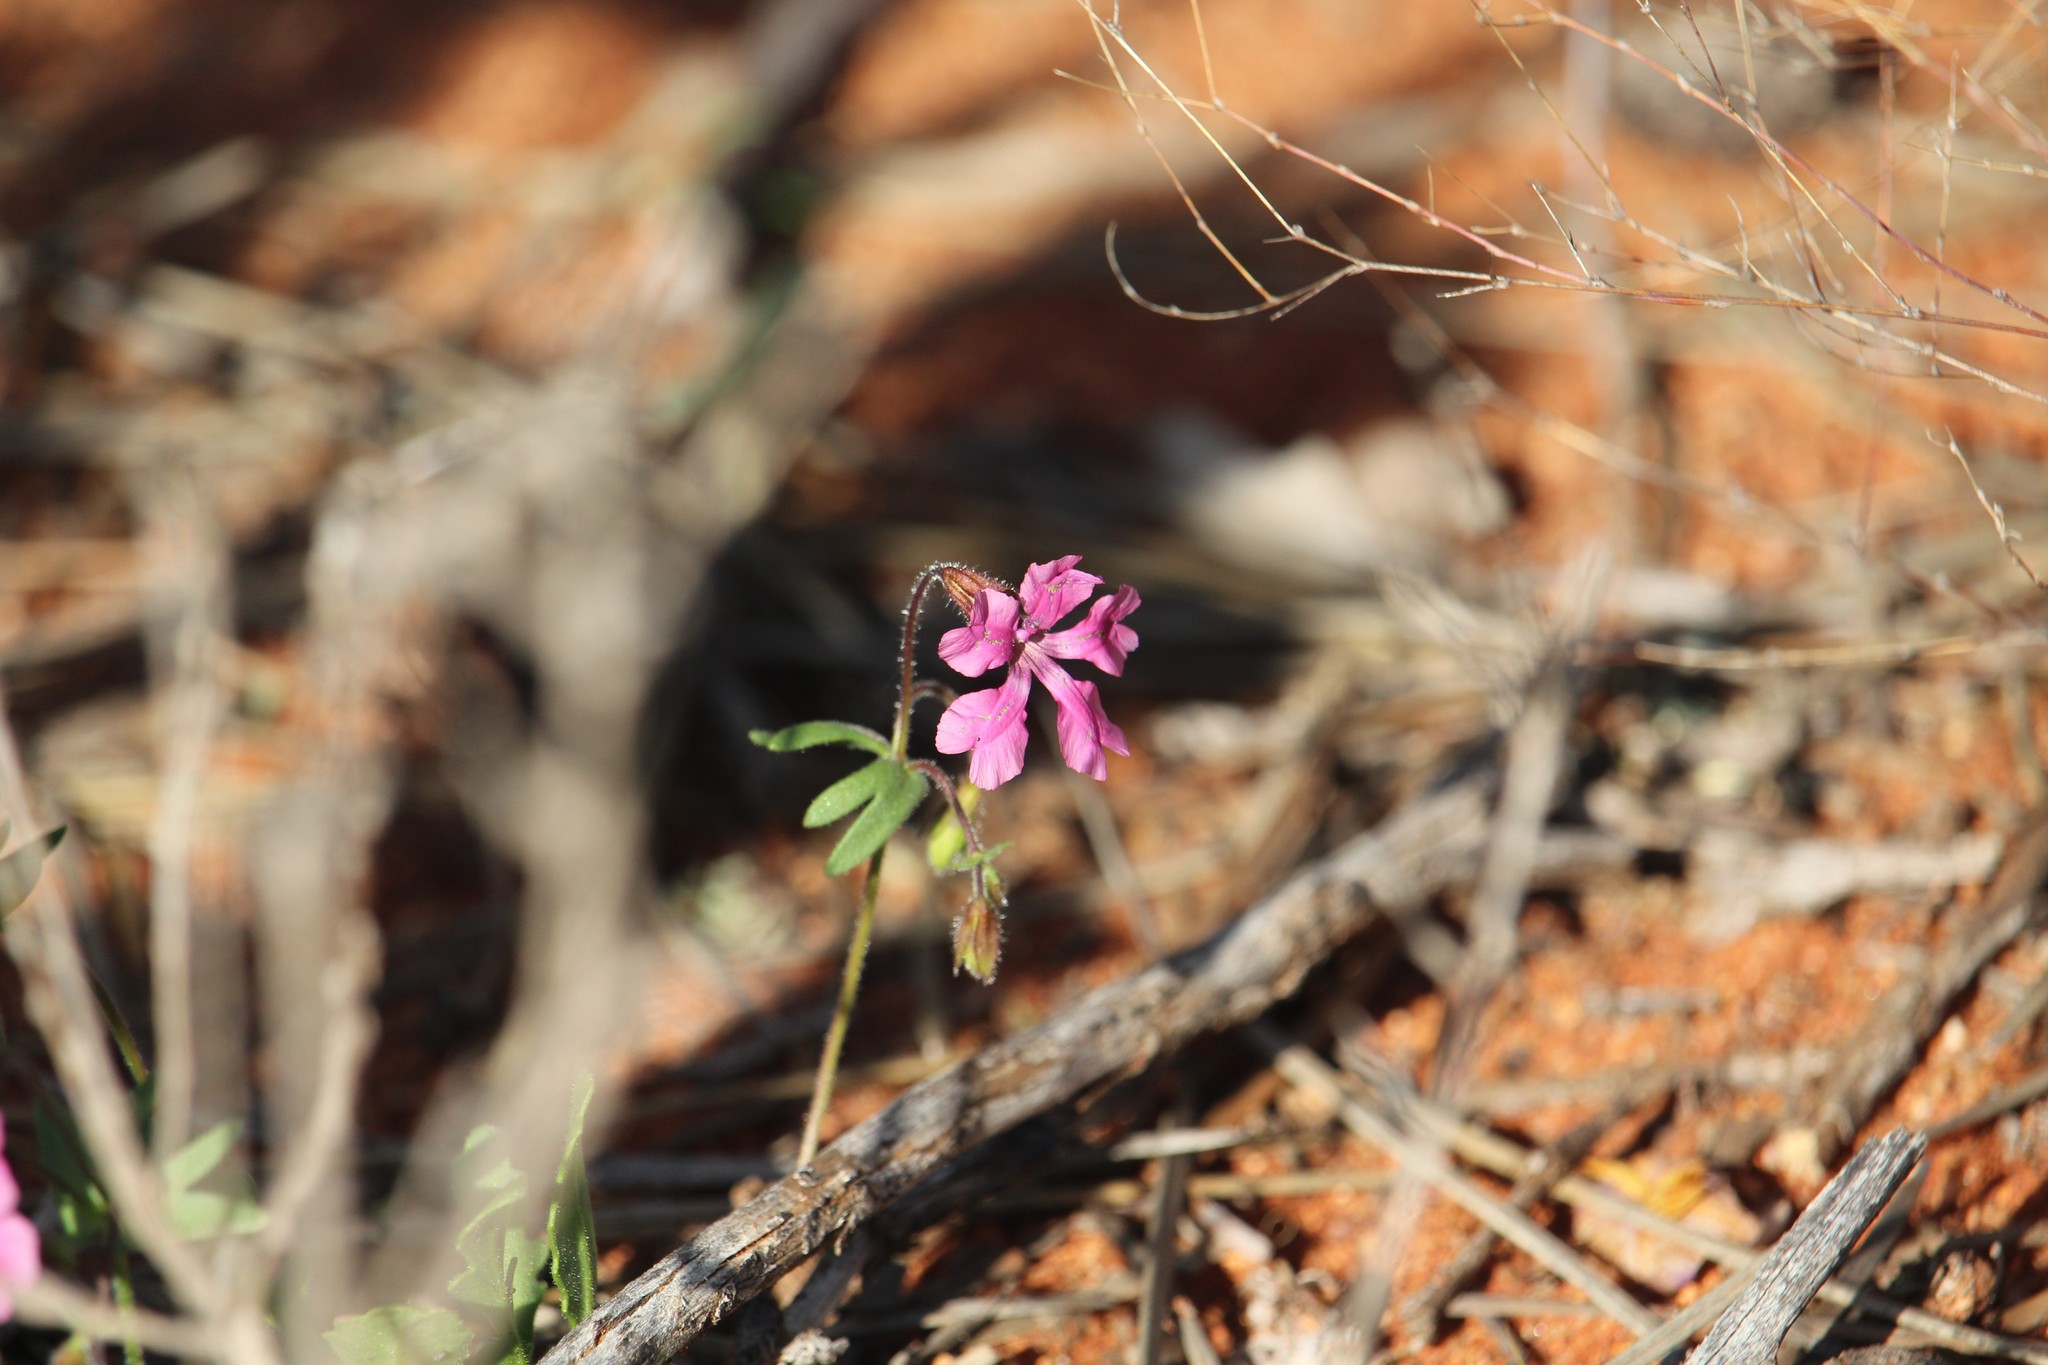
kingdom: Plantae
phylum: Tracheophyta
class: Magnoliopsida
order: Asterales
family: Goodeniaceae
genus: Goodenia
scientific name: Goodenia rosea
